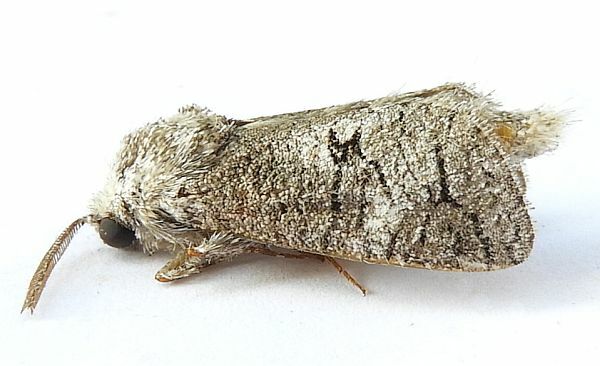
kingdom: Animalia
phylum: Arthropoda
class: Insecta
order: Lepidoptera
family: Cossidae
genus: Fania
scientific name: Fania nanus
